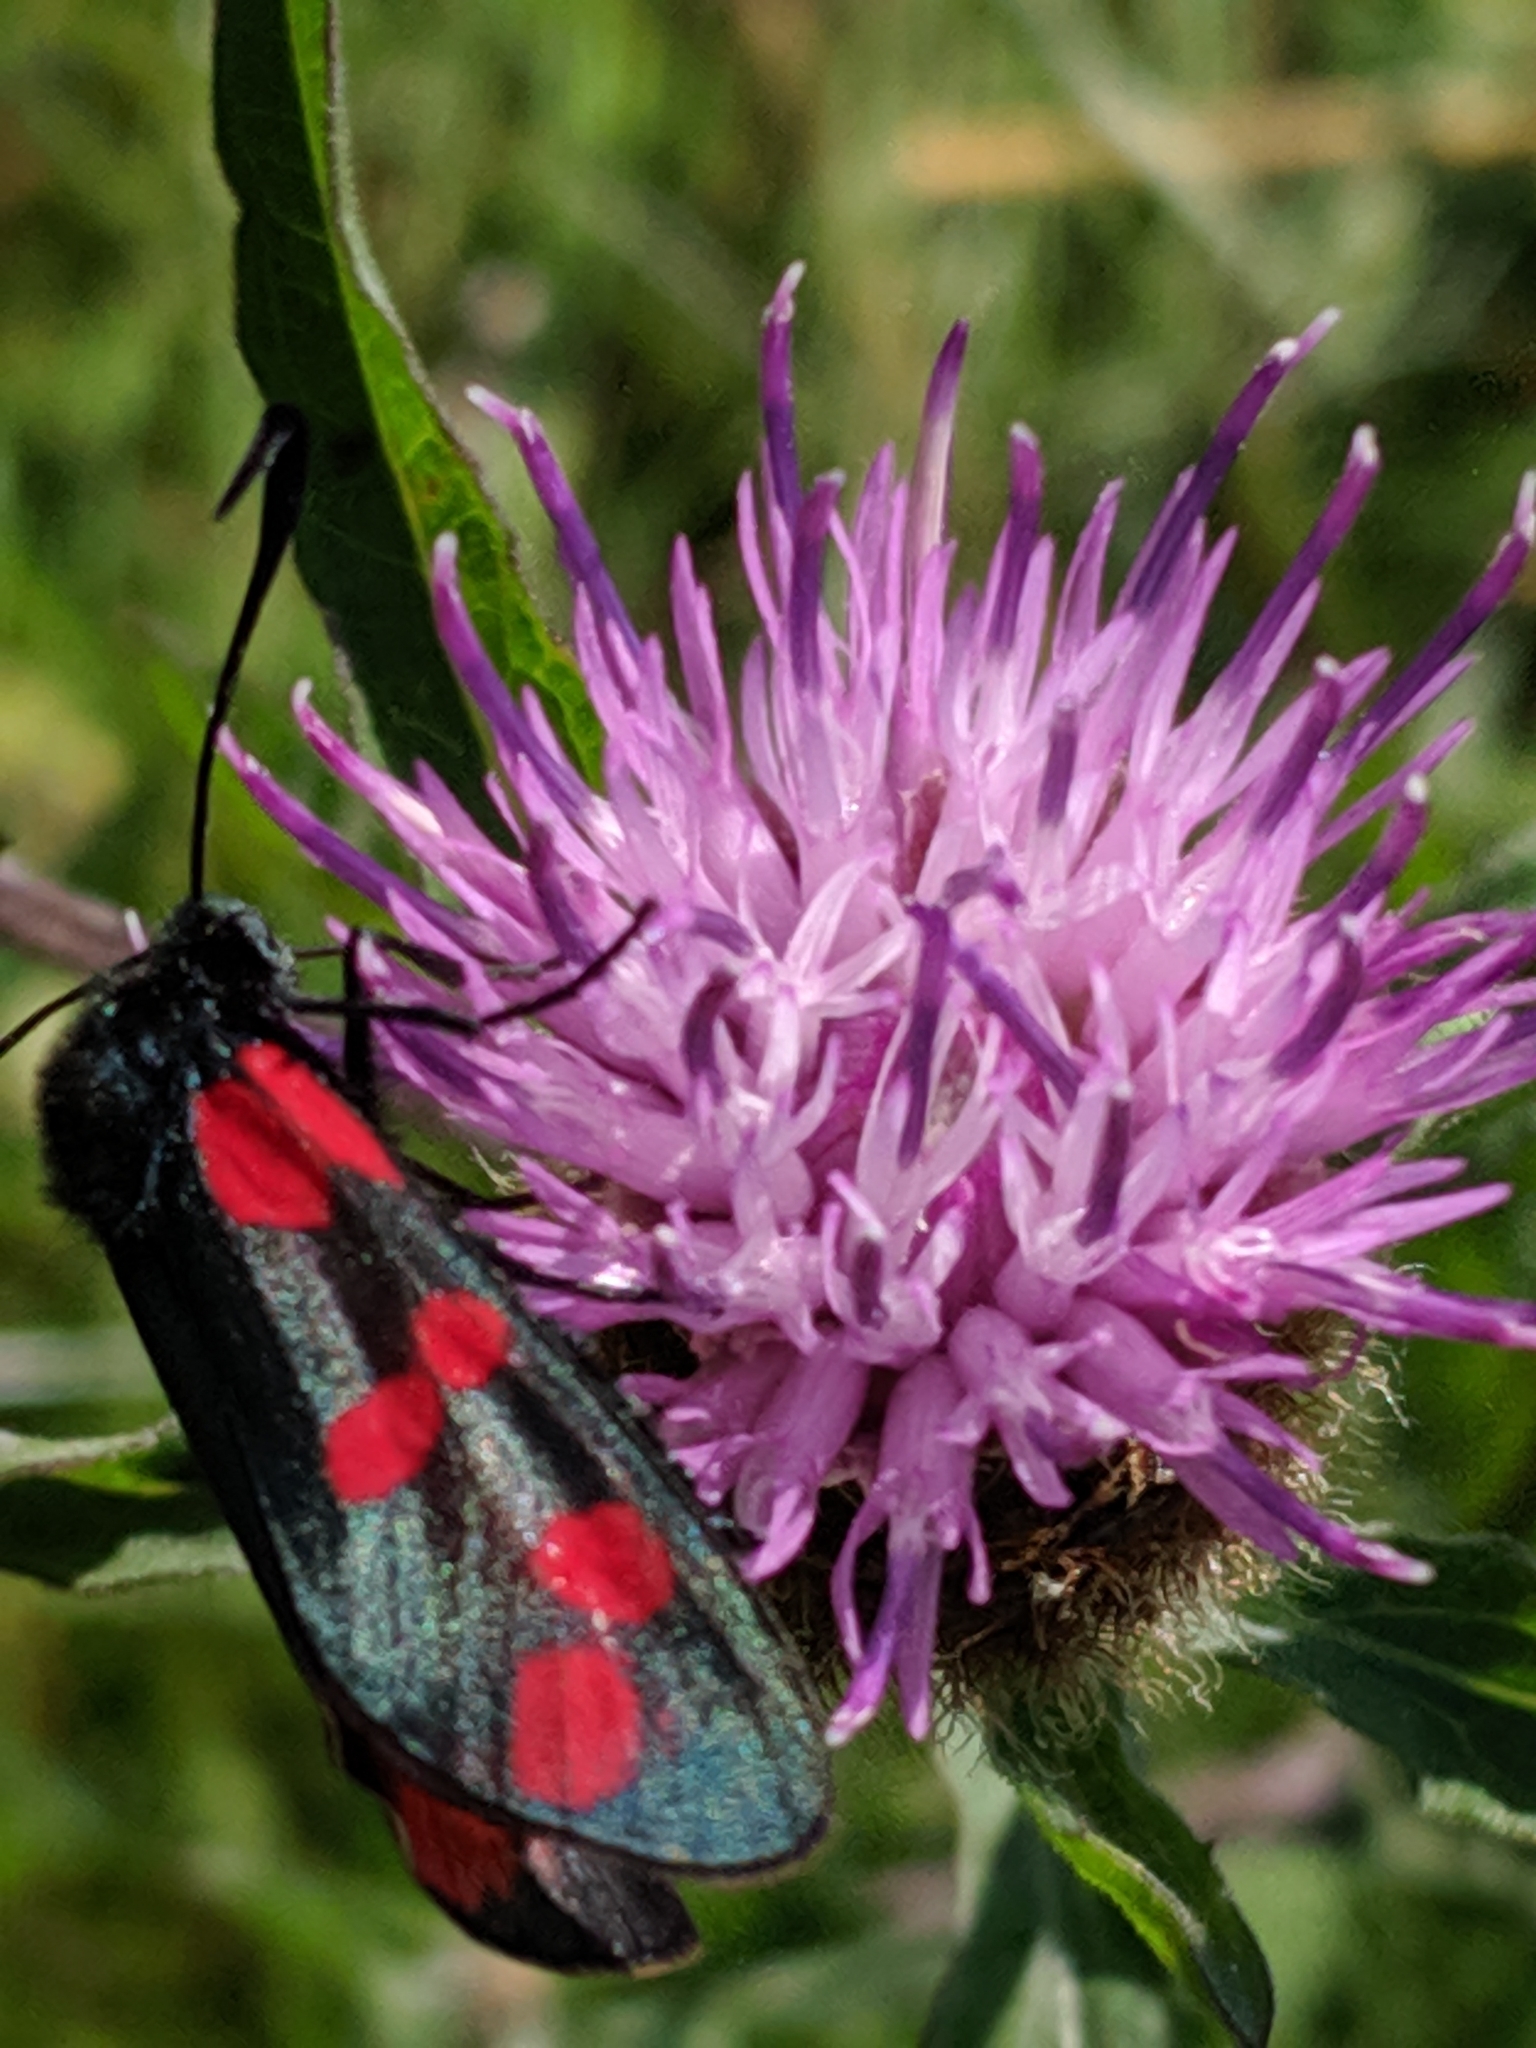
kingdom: Animalia
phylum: Arthropoda
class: Insecta
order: Lepidoptera
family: Zygaenidae
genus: Zygaena
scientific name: Zygaena filipendulae
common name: Six-spot burnet
